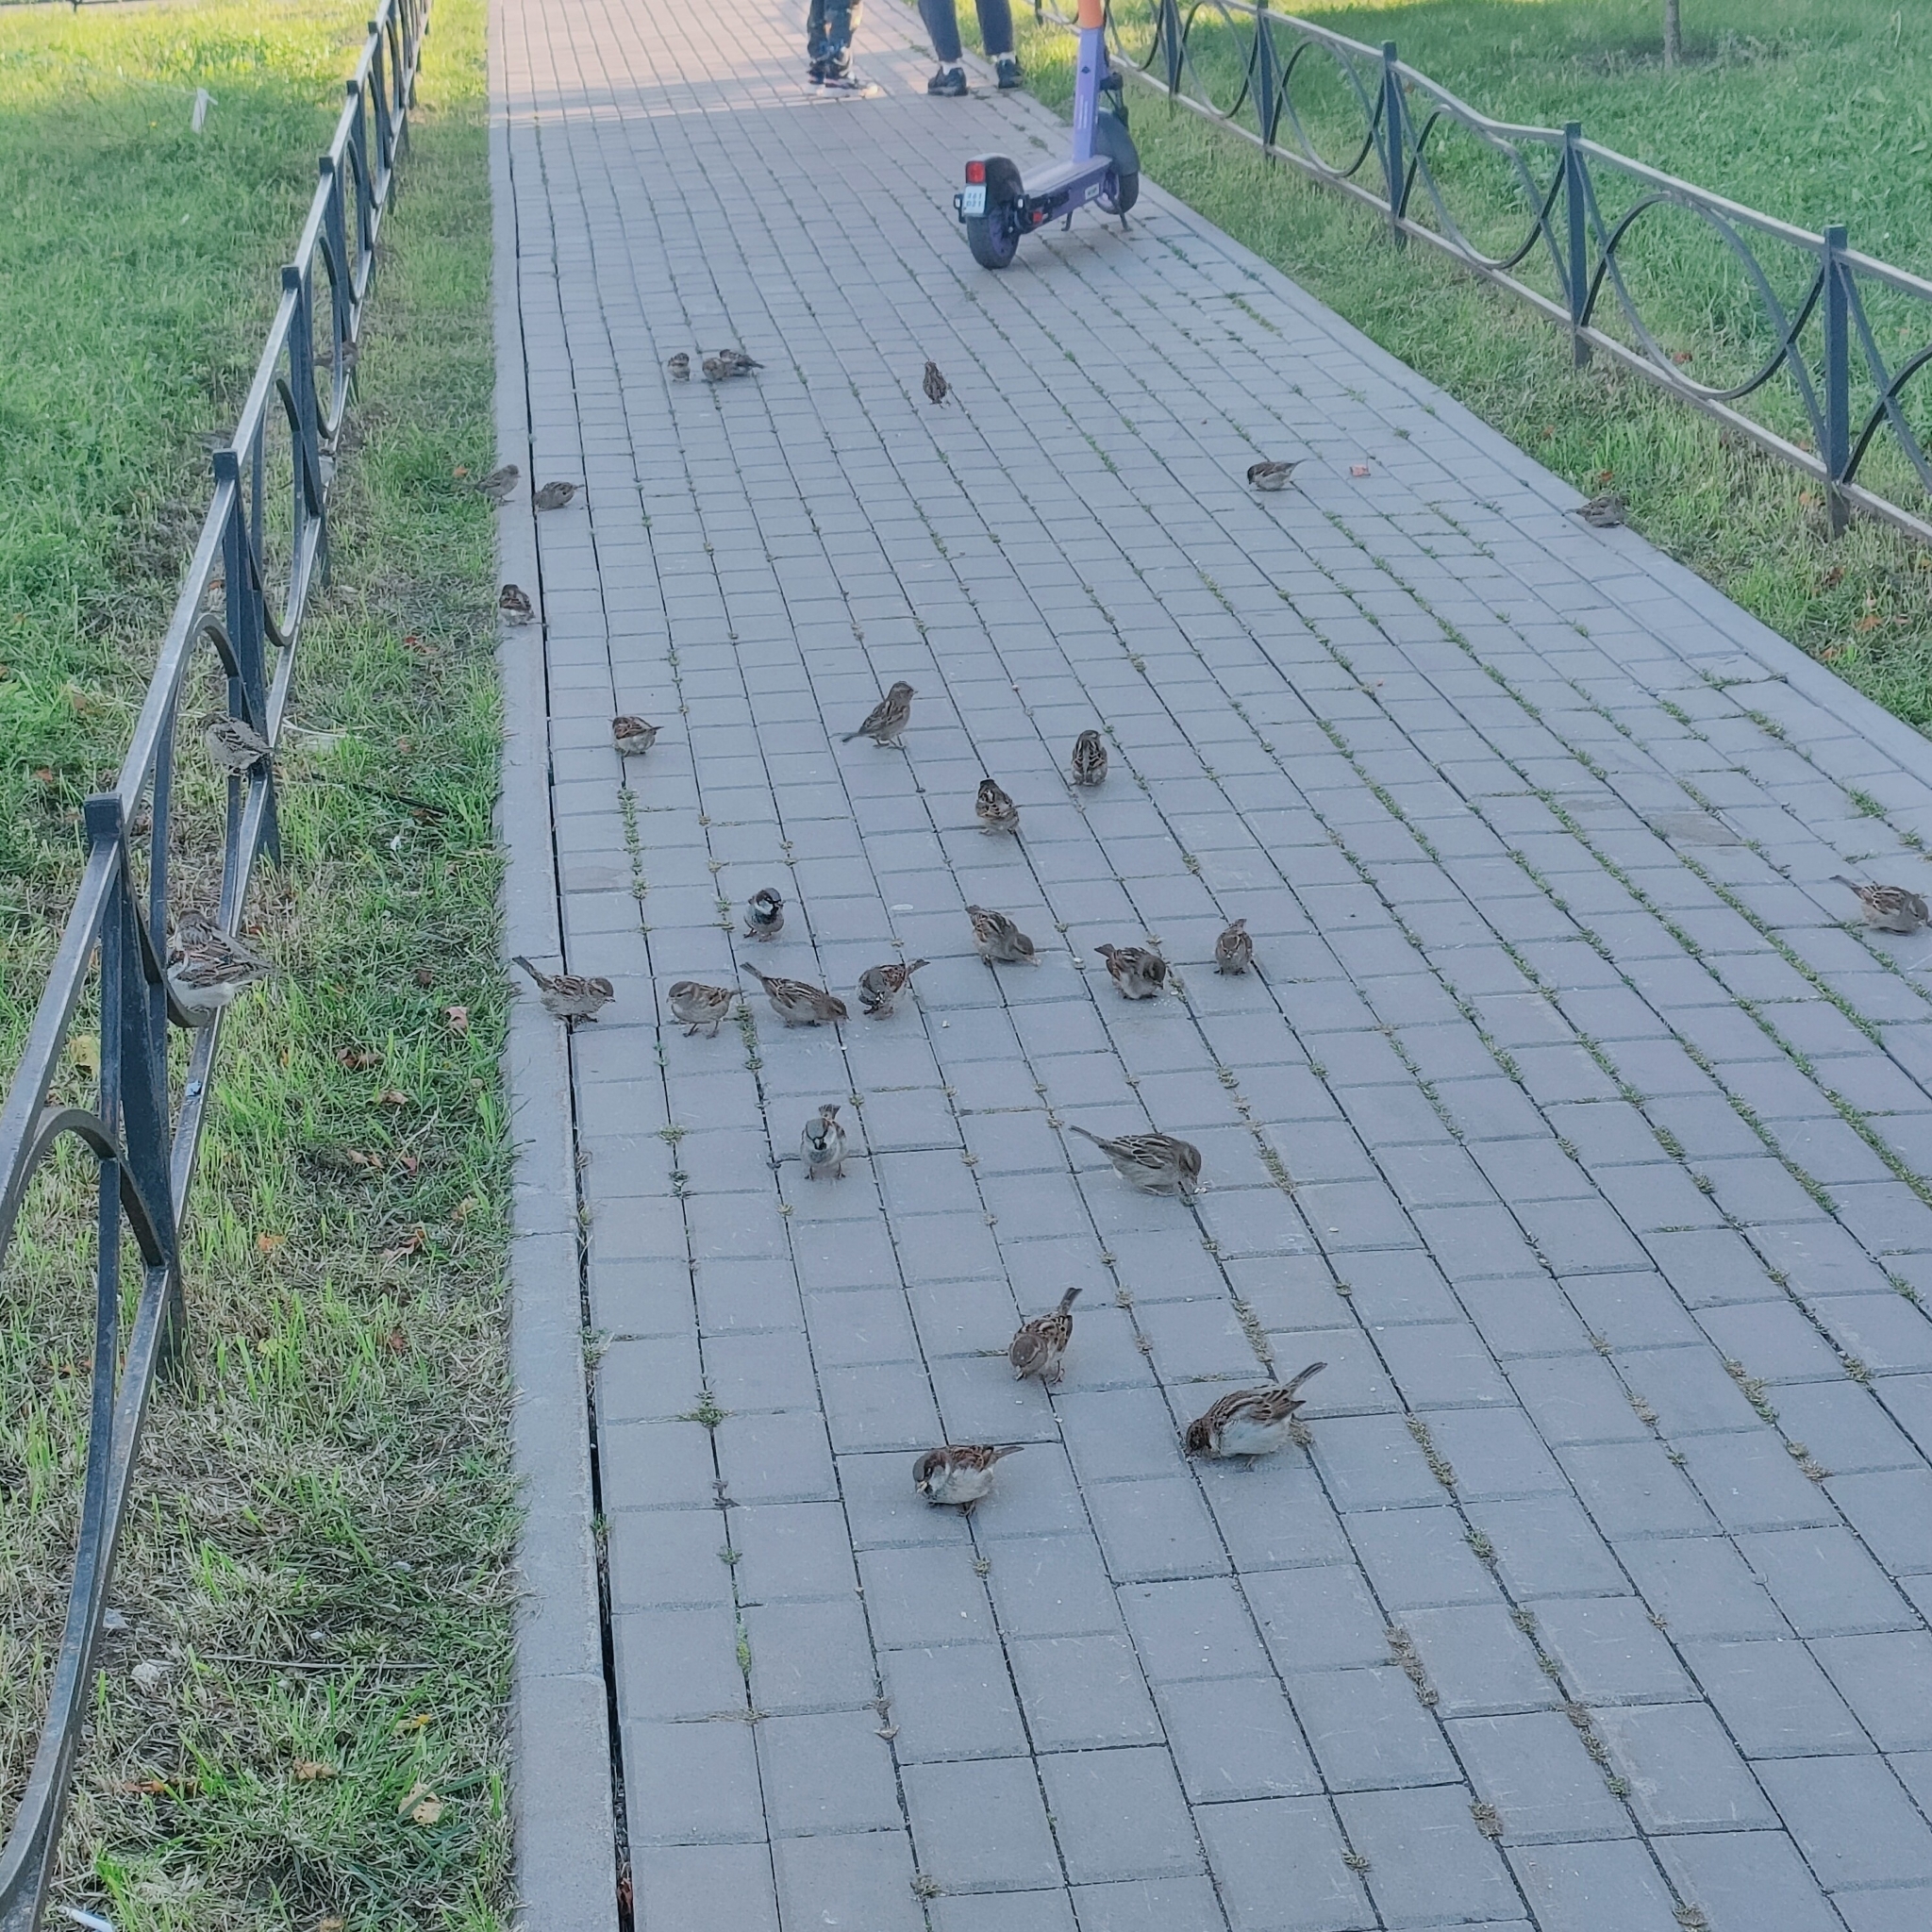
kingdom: Animalia
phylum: Chordata
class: Aves
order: Passeriformes
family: Passeridae
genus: Passer
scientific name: Passer domesticus
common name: House sparrow
